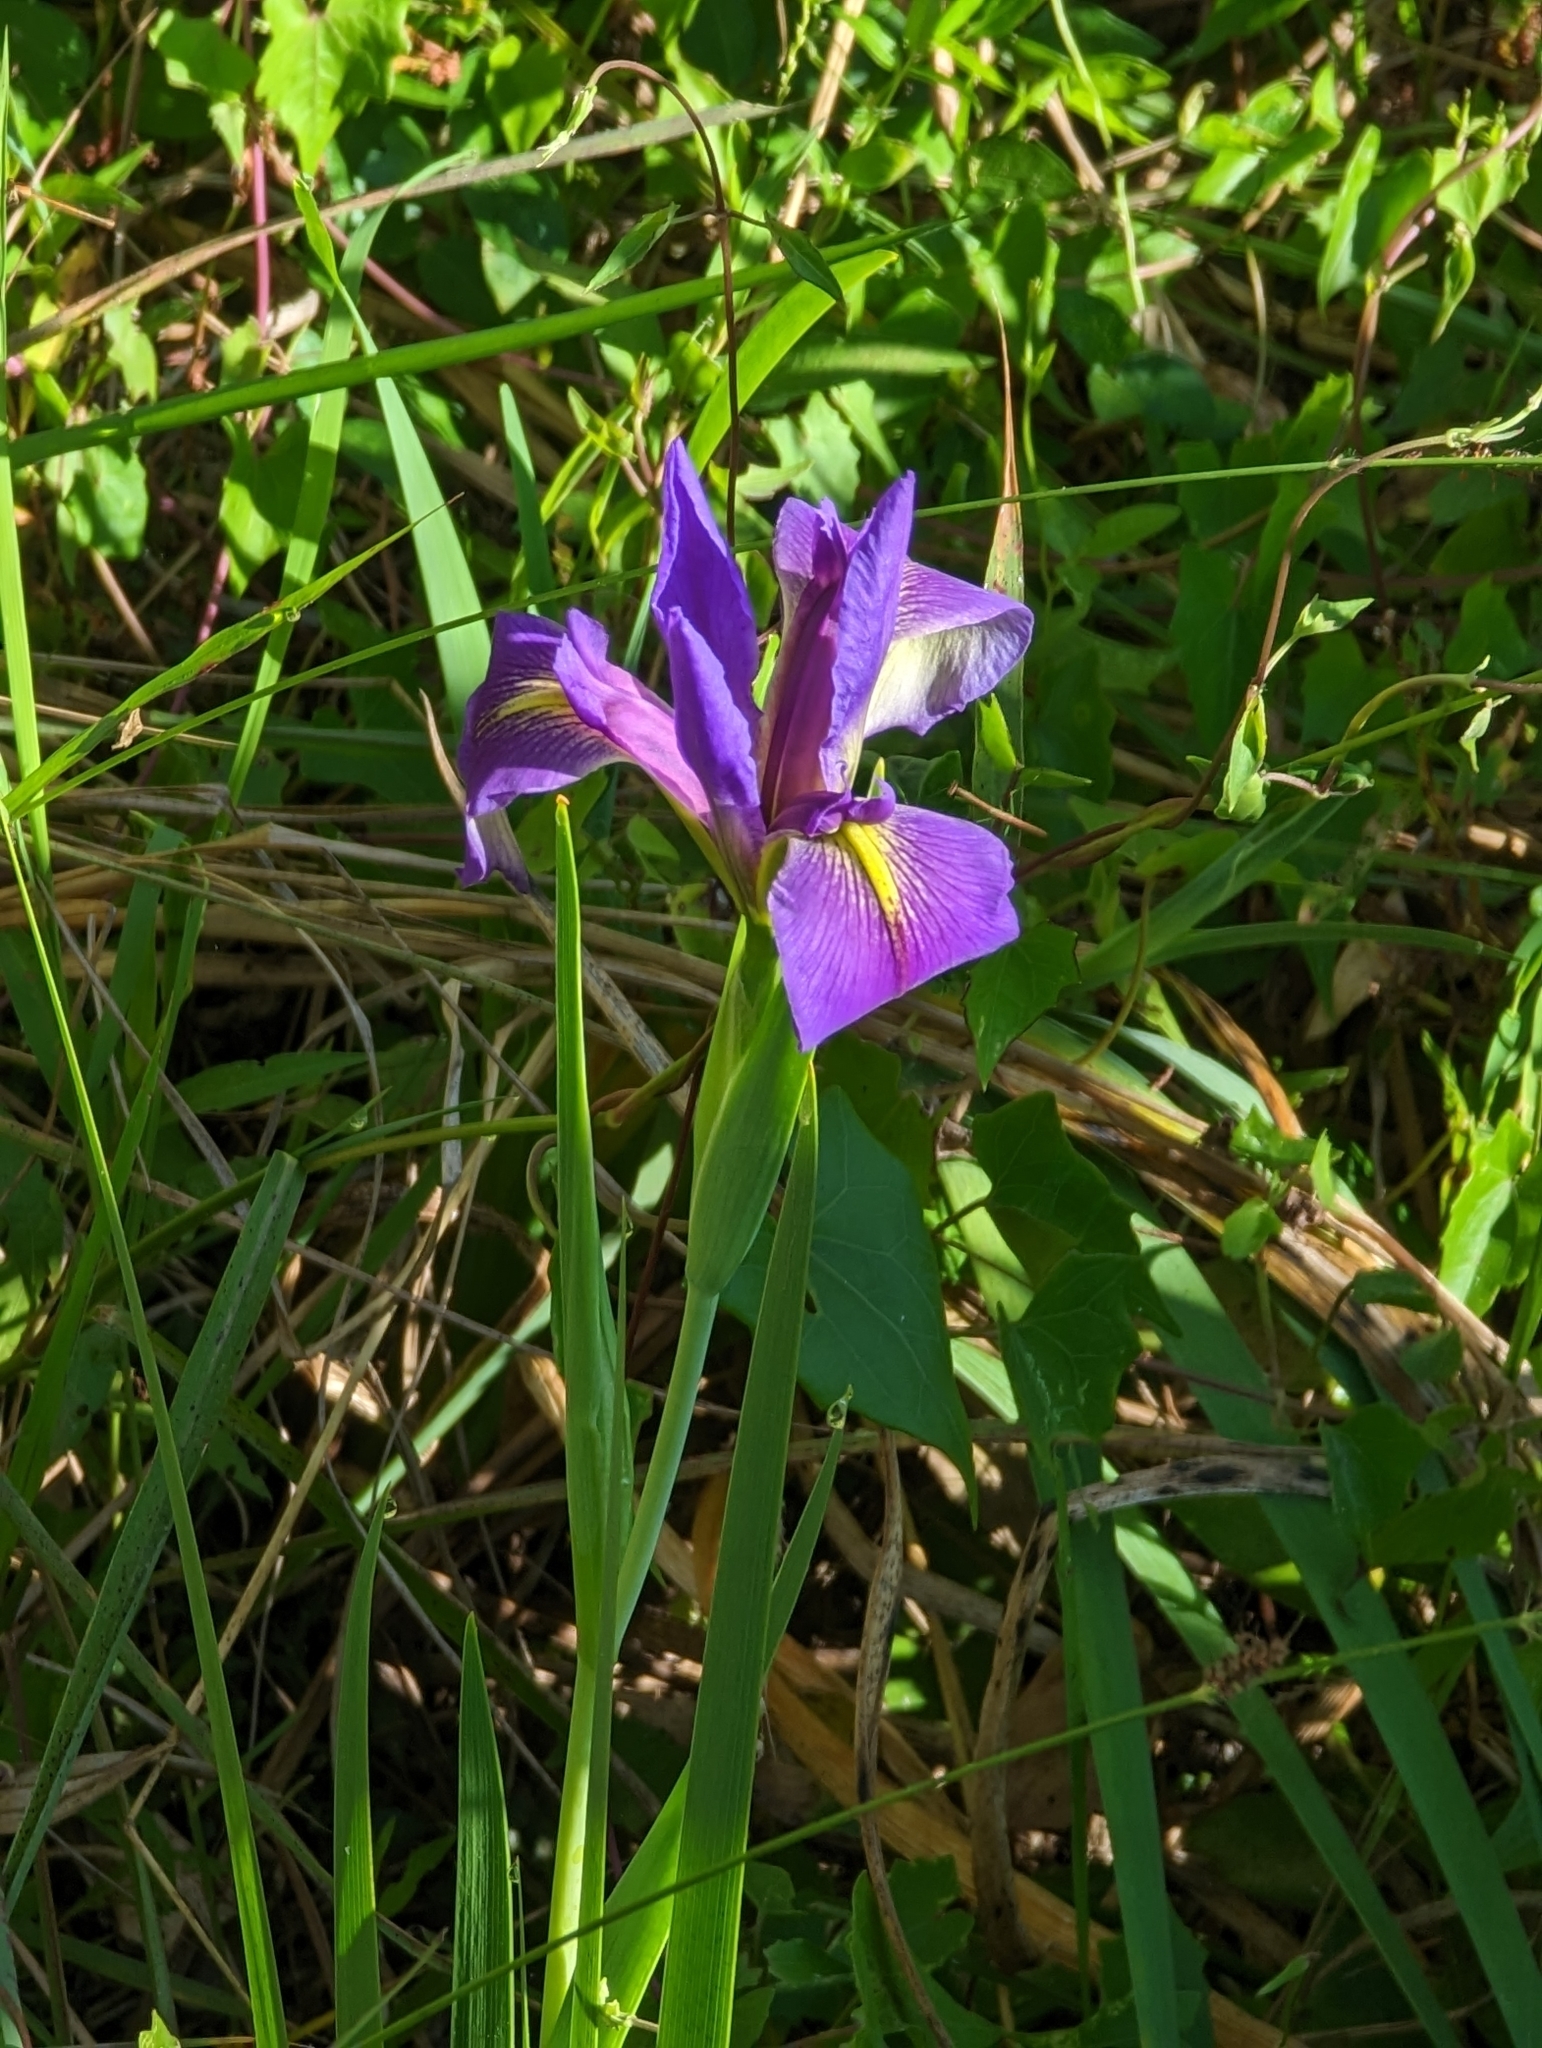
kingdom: Plantae
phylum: Tracheophyta
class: Liliopsida
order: Asparagales
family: Iridaceae
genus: Iris
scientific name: Iris savannarum
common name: Prairie iris
